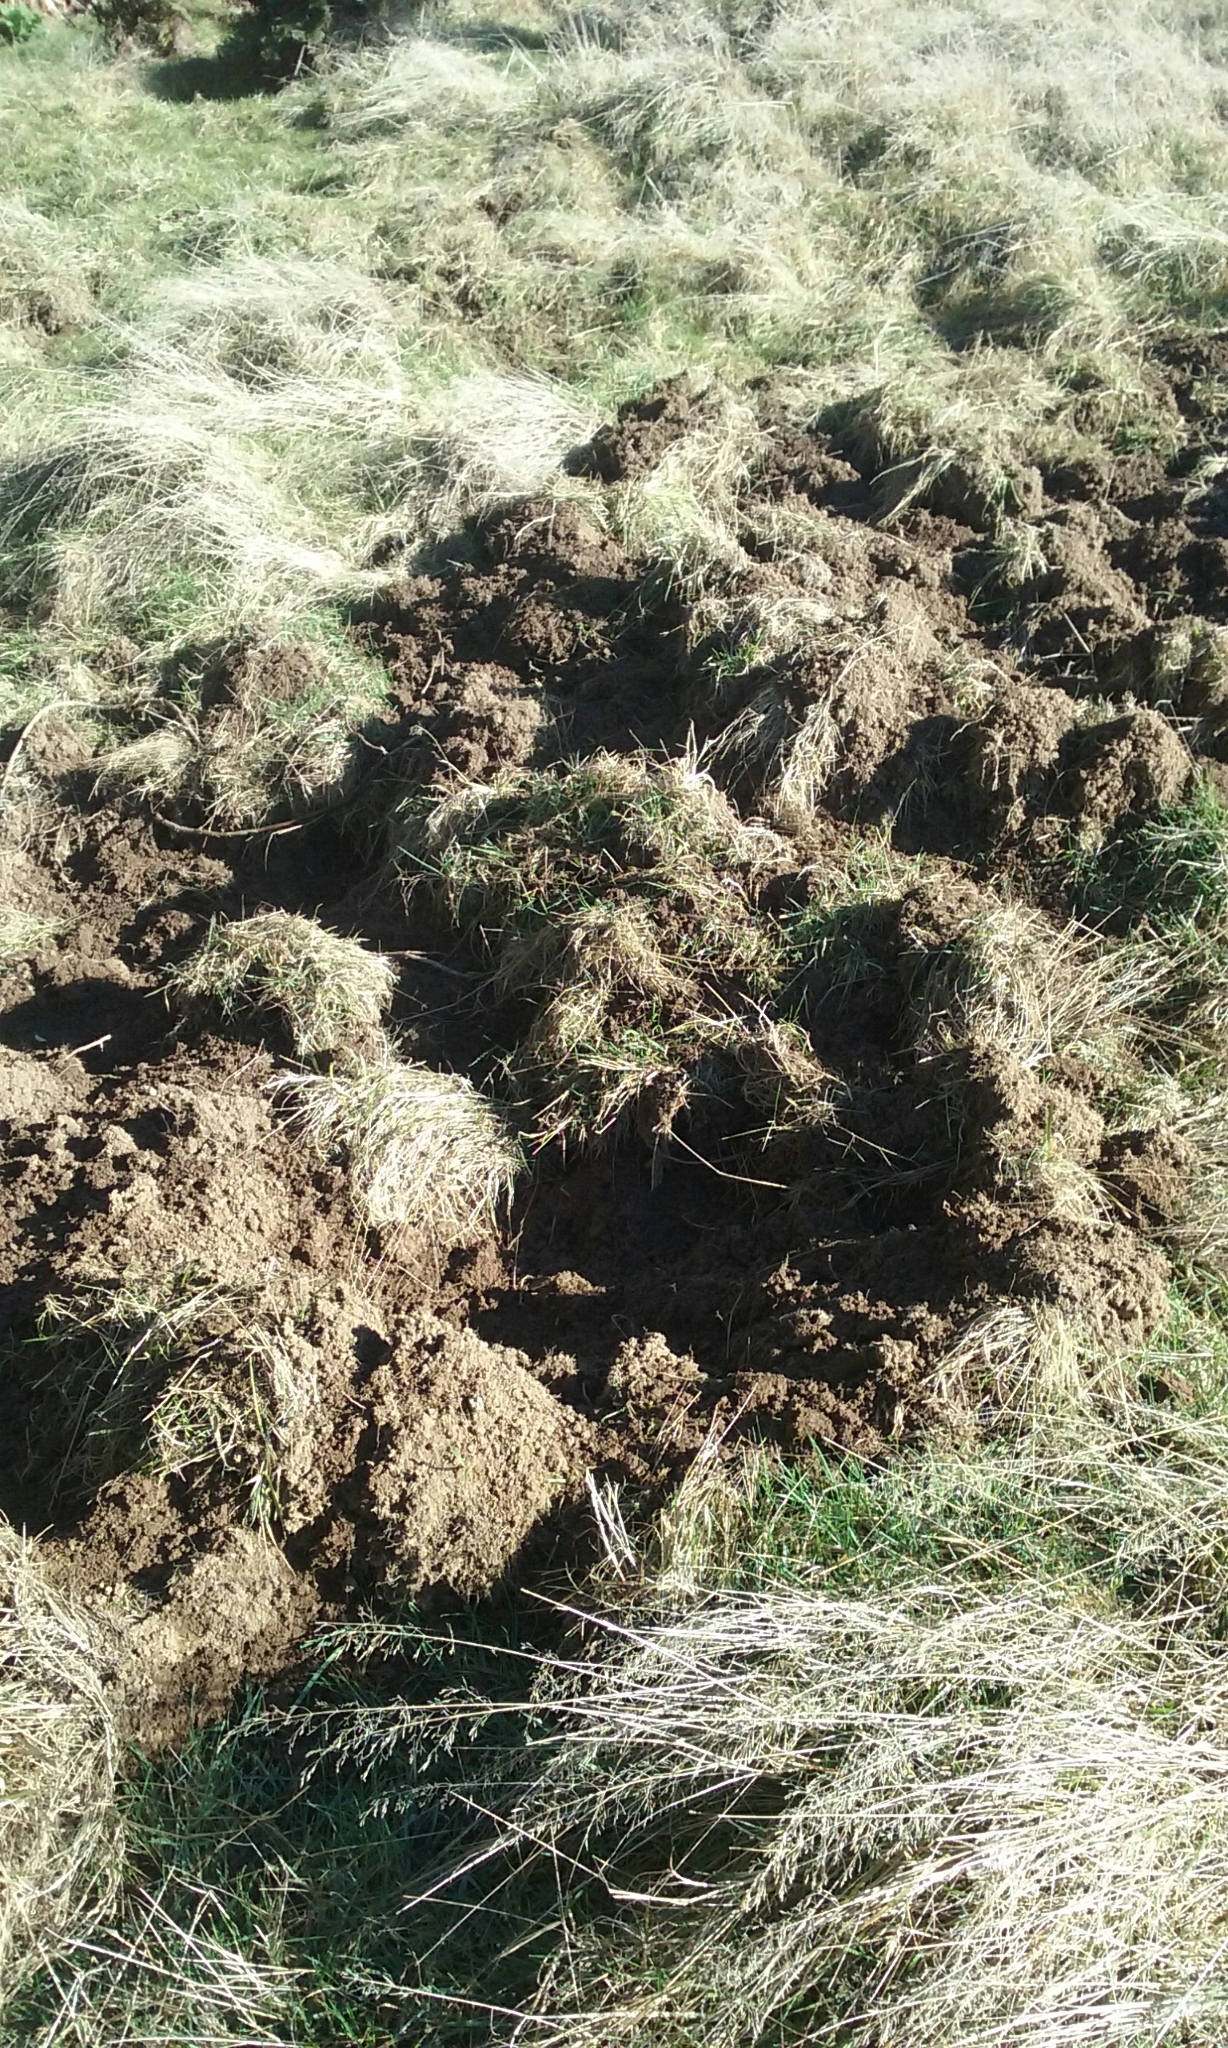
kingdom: Animalia
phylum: Chordata
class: Mammalia
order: Artiodactyla
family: Suidae
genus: Sus
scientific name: Sus scrofa
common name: Wild boar
